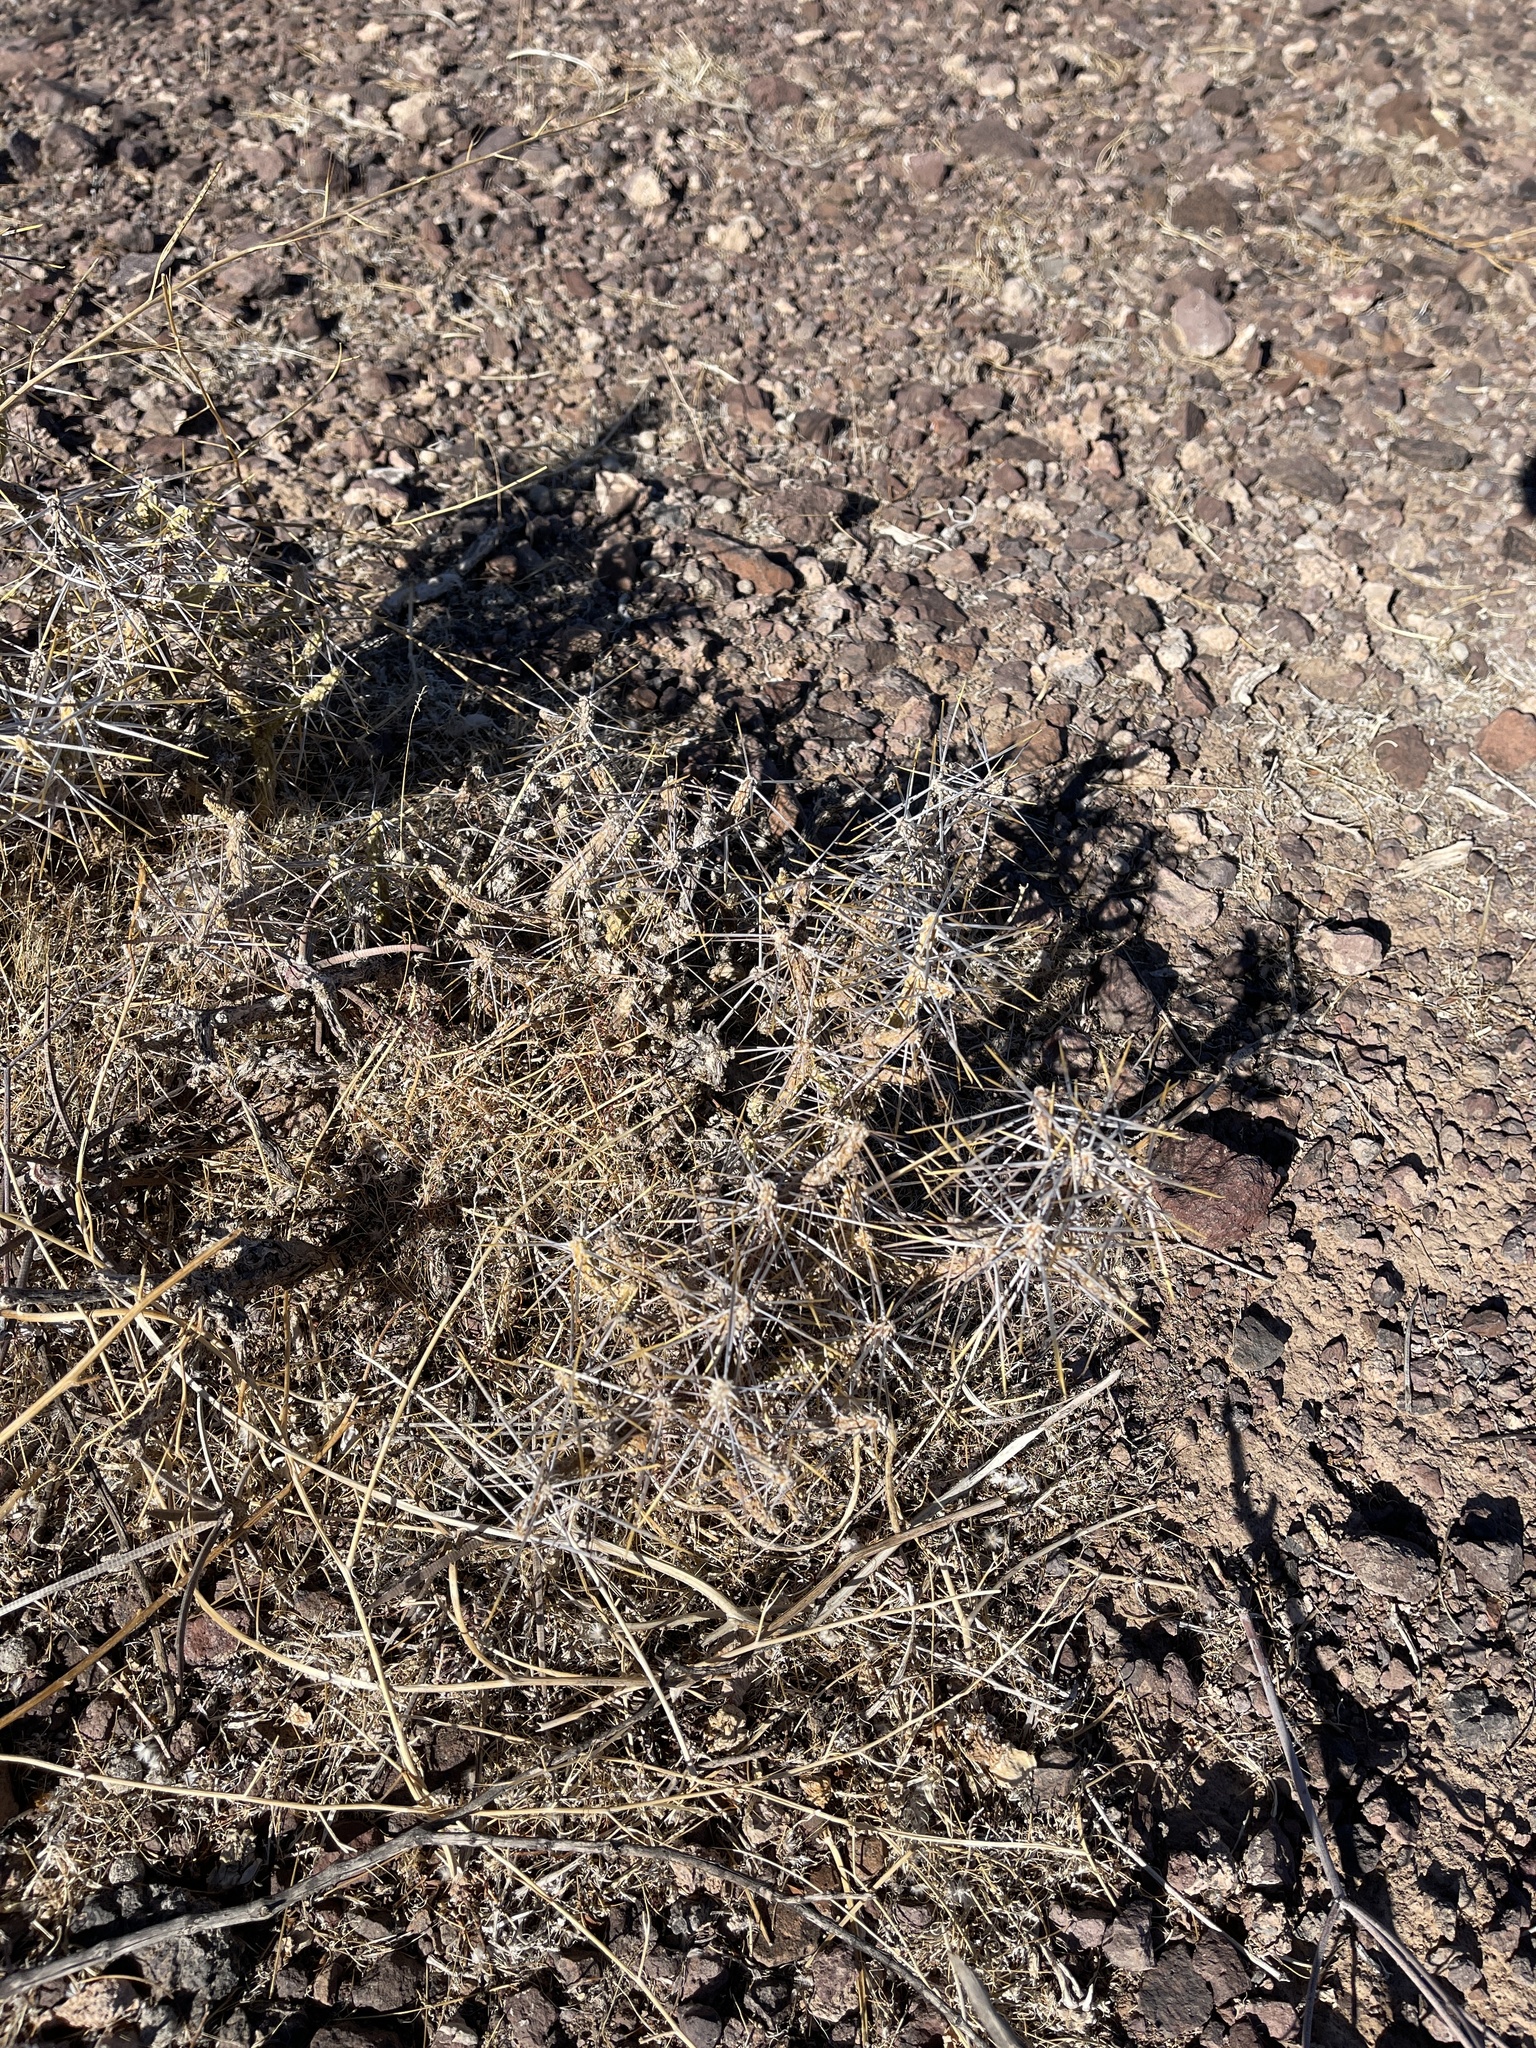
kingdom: Plantae
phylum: Tracheophyta
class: Magnoliopsida
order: Caryophyllales
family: Cactaceae
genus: Cylindropuntia
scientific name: Cylindropuntia ramosissima
